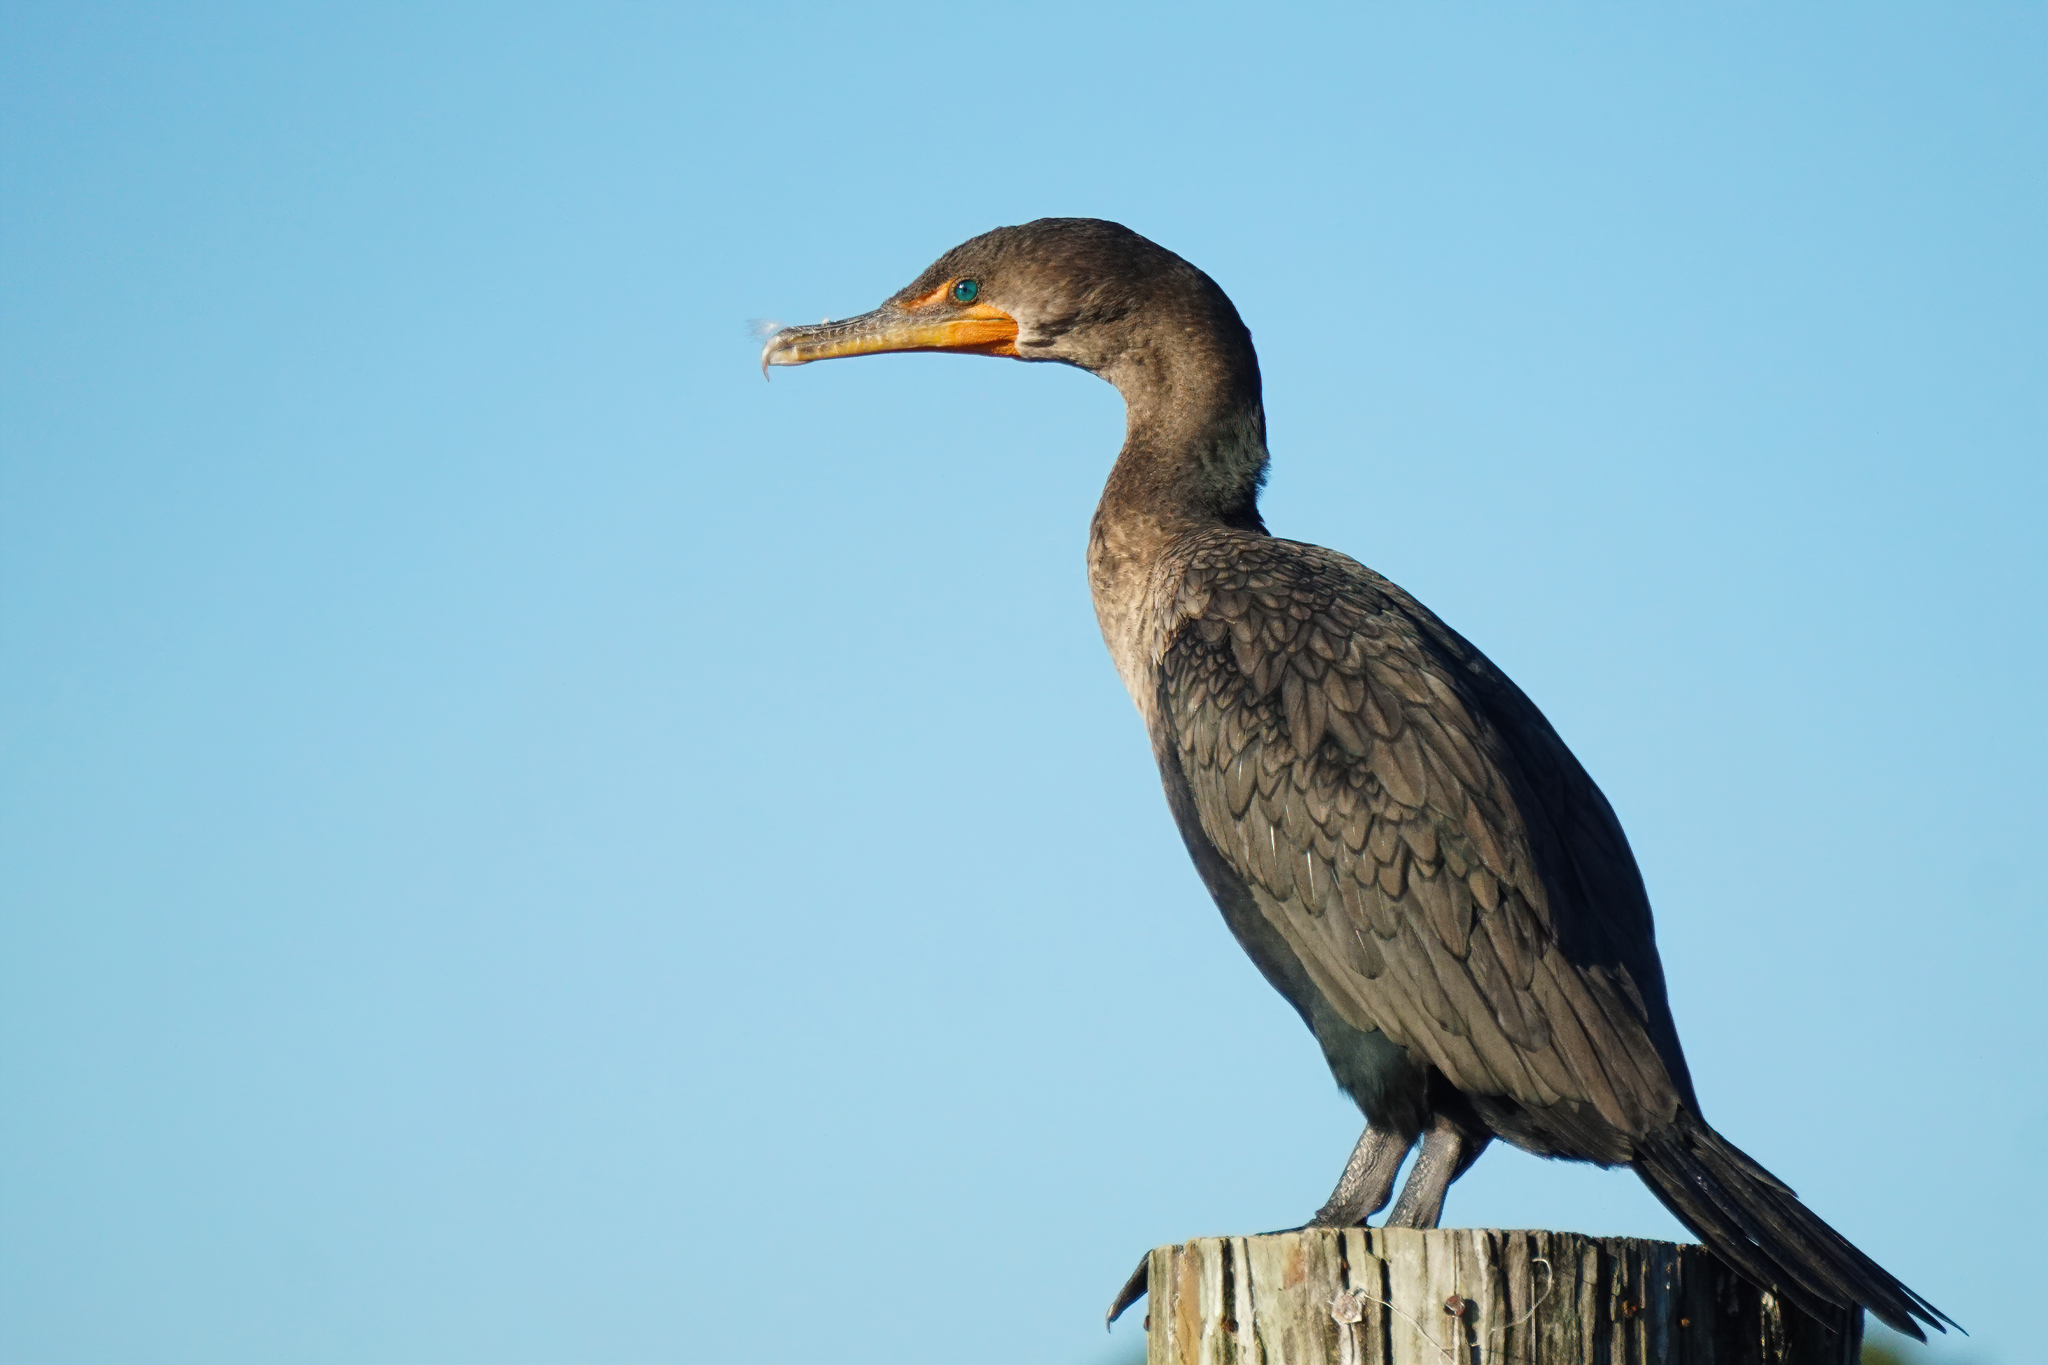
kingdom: Animalia
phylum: Chordata
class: Aves
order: Suliformes
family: Phalacrocoracidae
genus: Phalacrocorax
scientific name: Phalacrocorax auritus
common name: Double-crested cormorant
